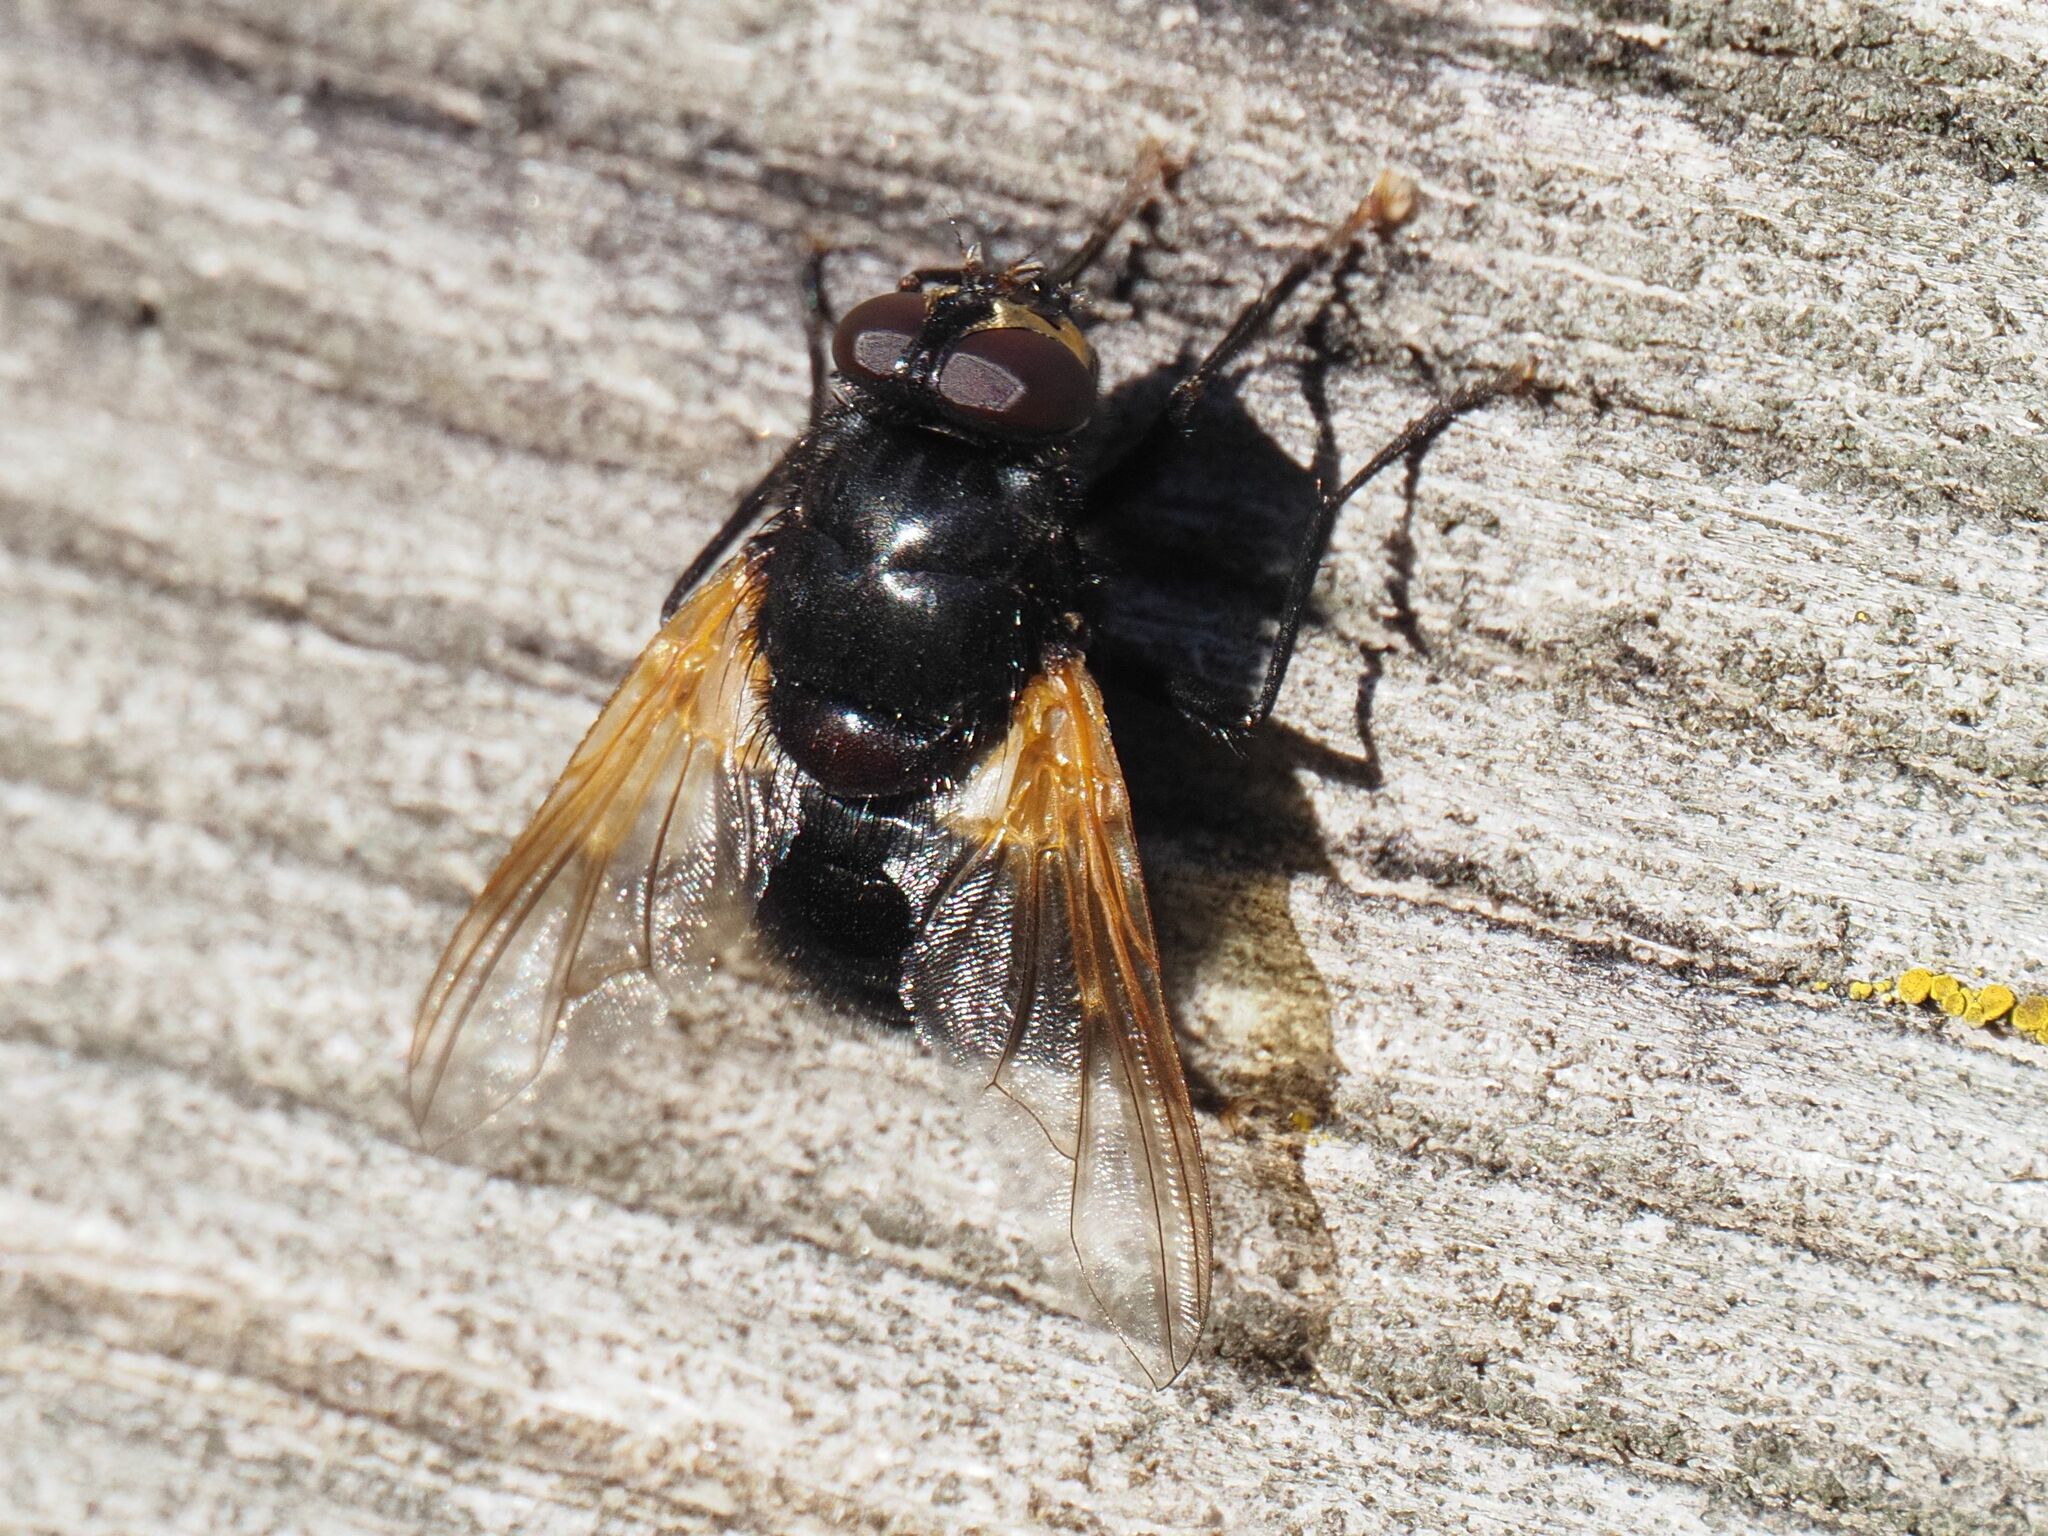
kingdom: Animalia
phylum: Arthropoda
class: Insecta
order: Diptera
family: Muscidae
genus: Mesembrina
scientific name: Mesembrina meridiana
